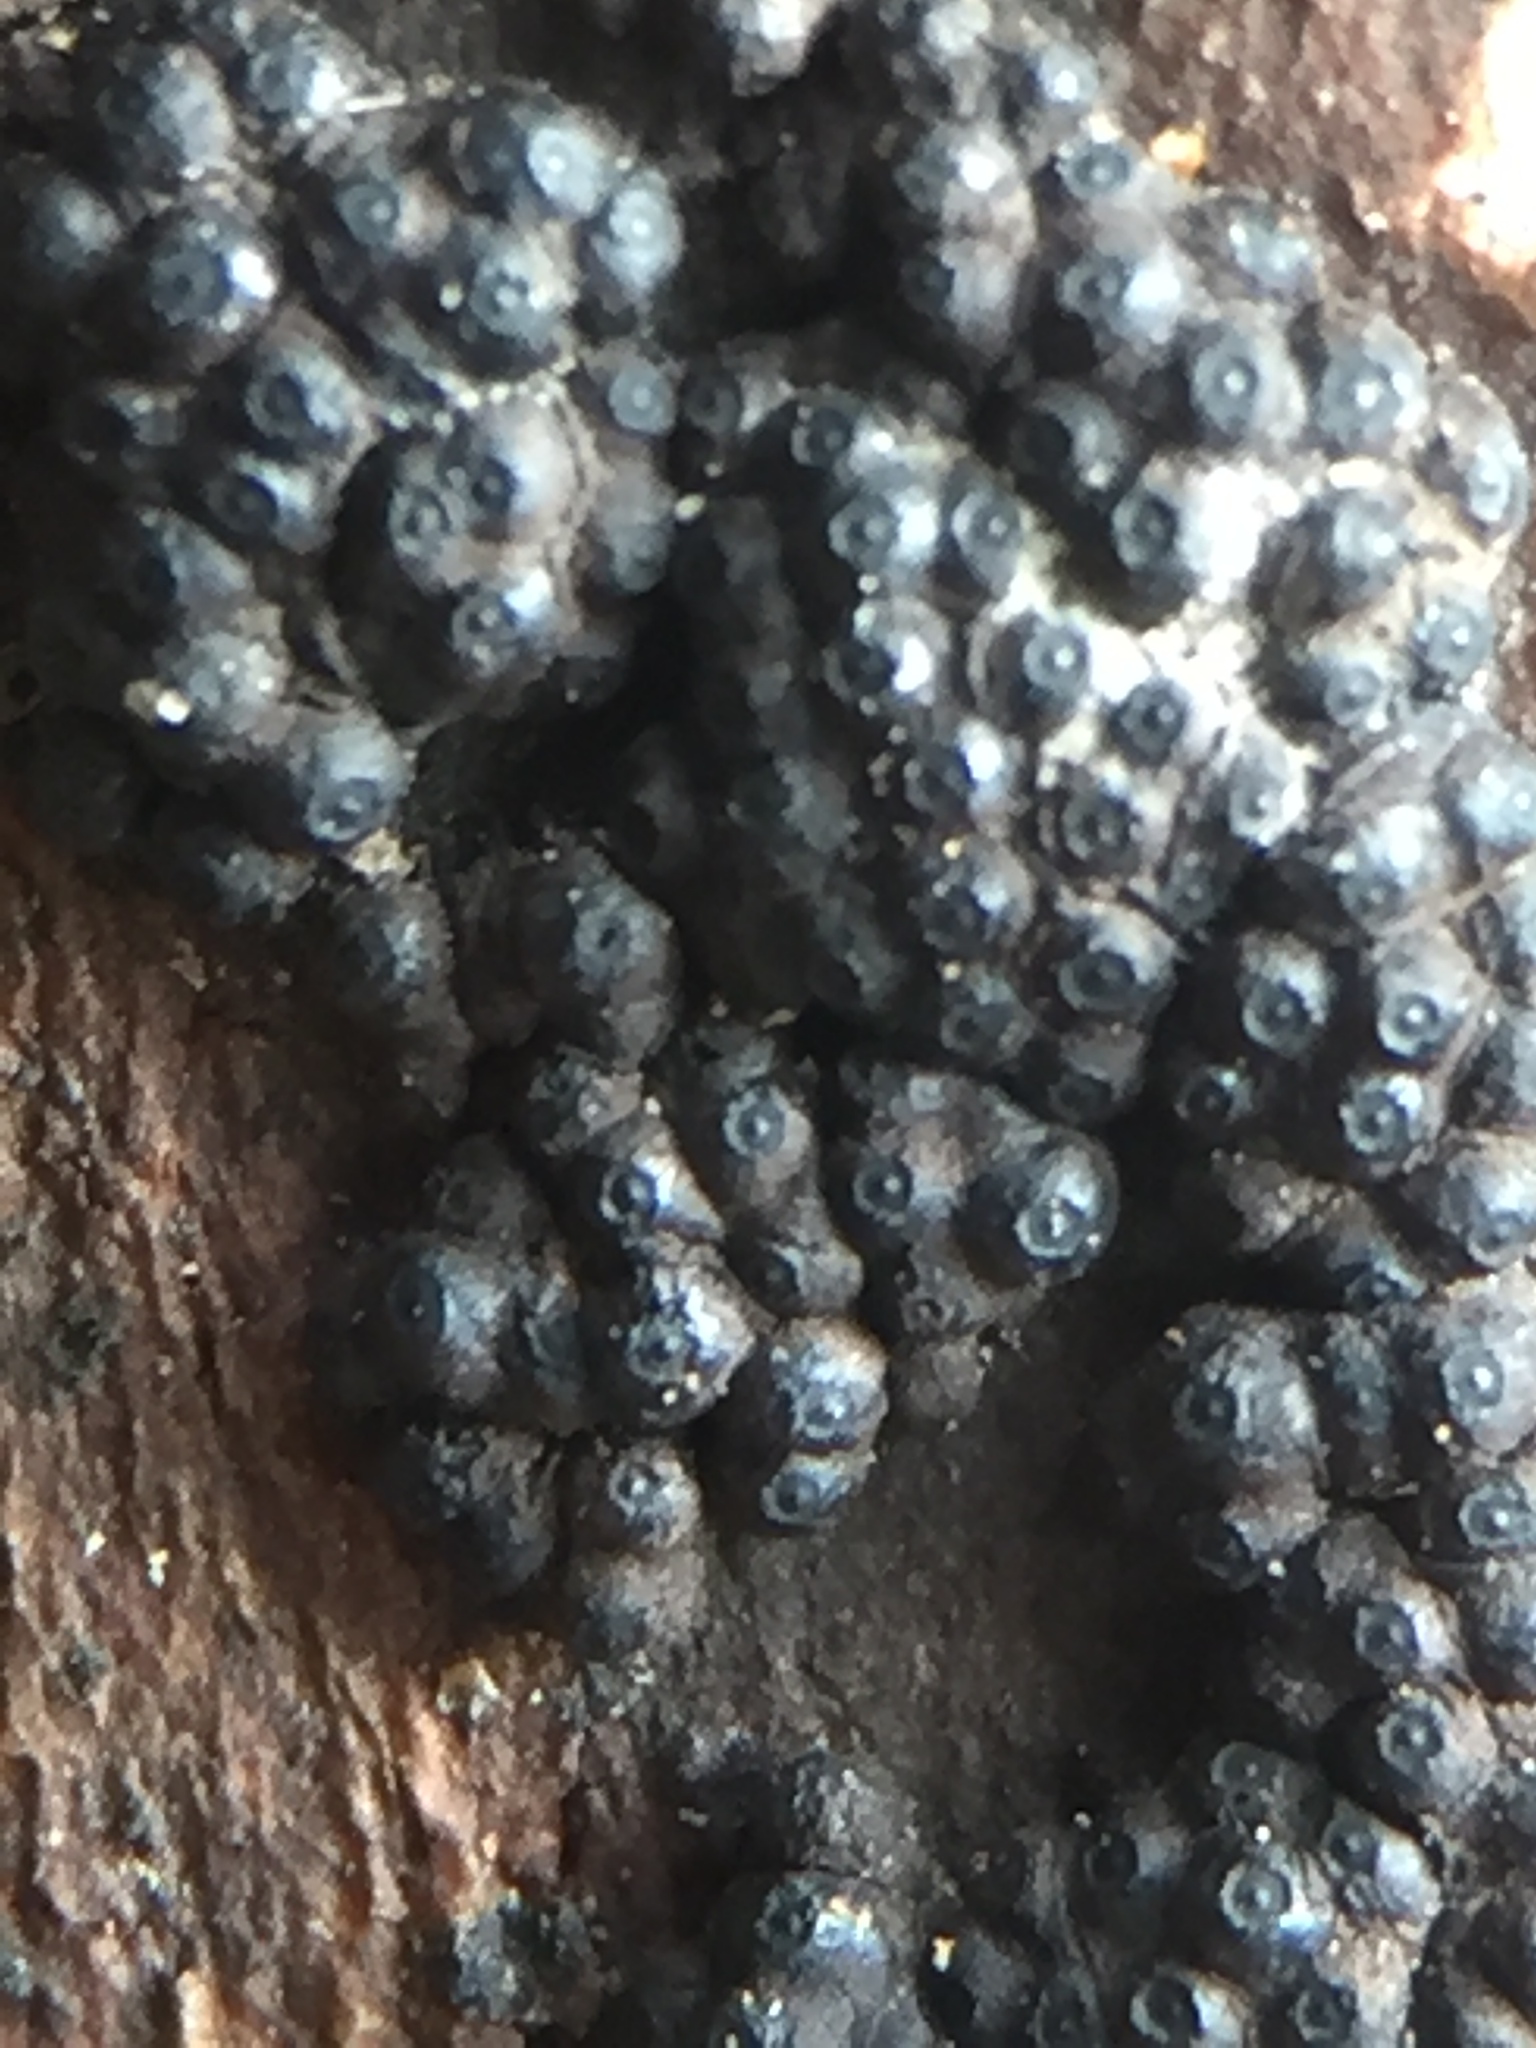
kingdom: Fungi
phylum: Ascomycota
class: Sordariomycetes
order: Xylariales
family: Hypoxylaceae
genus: Annulohypoxylon
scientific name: Annulohypoxylon bovei
